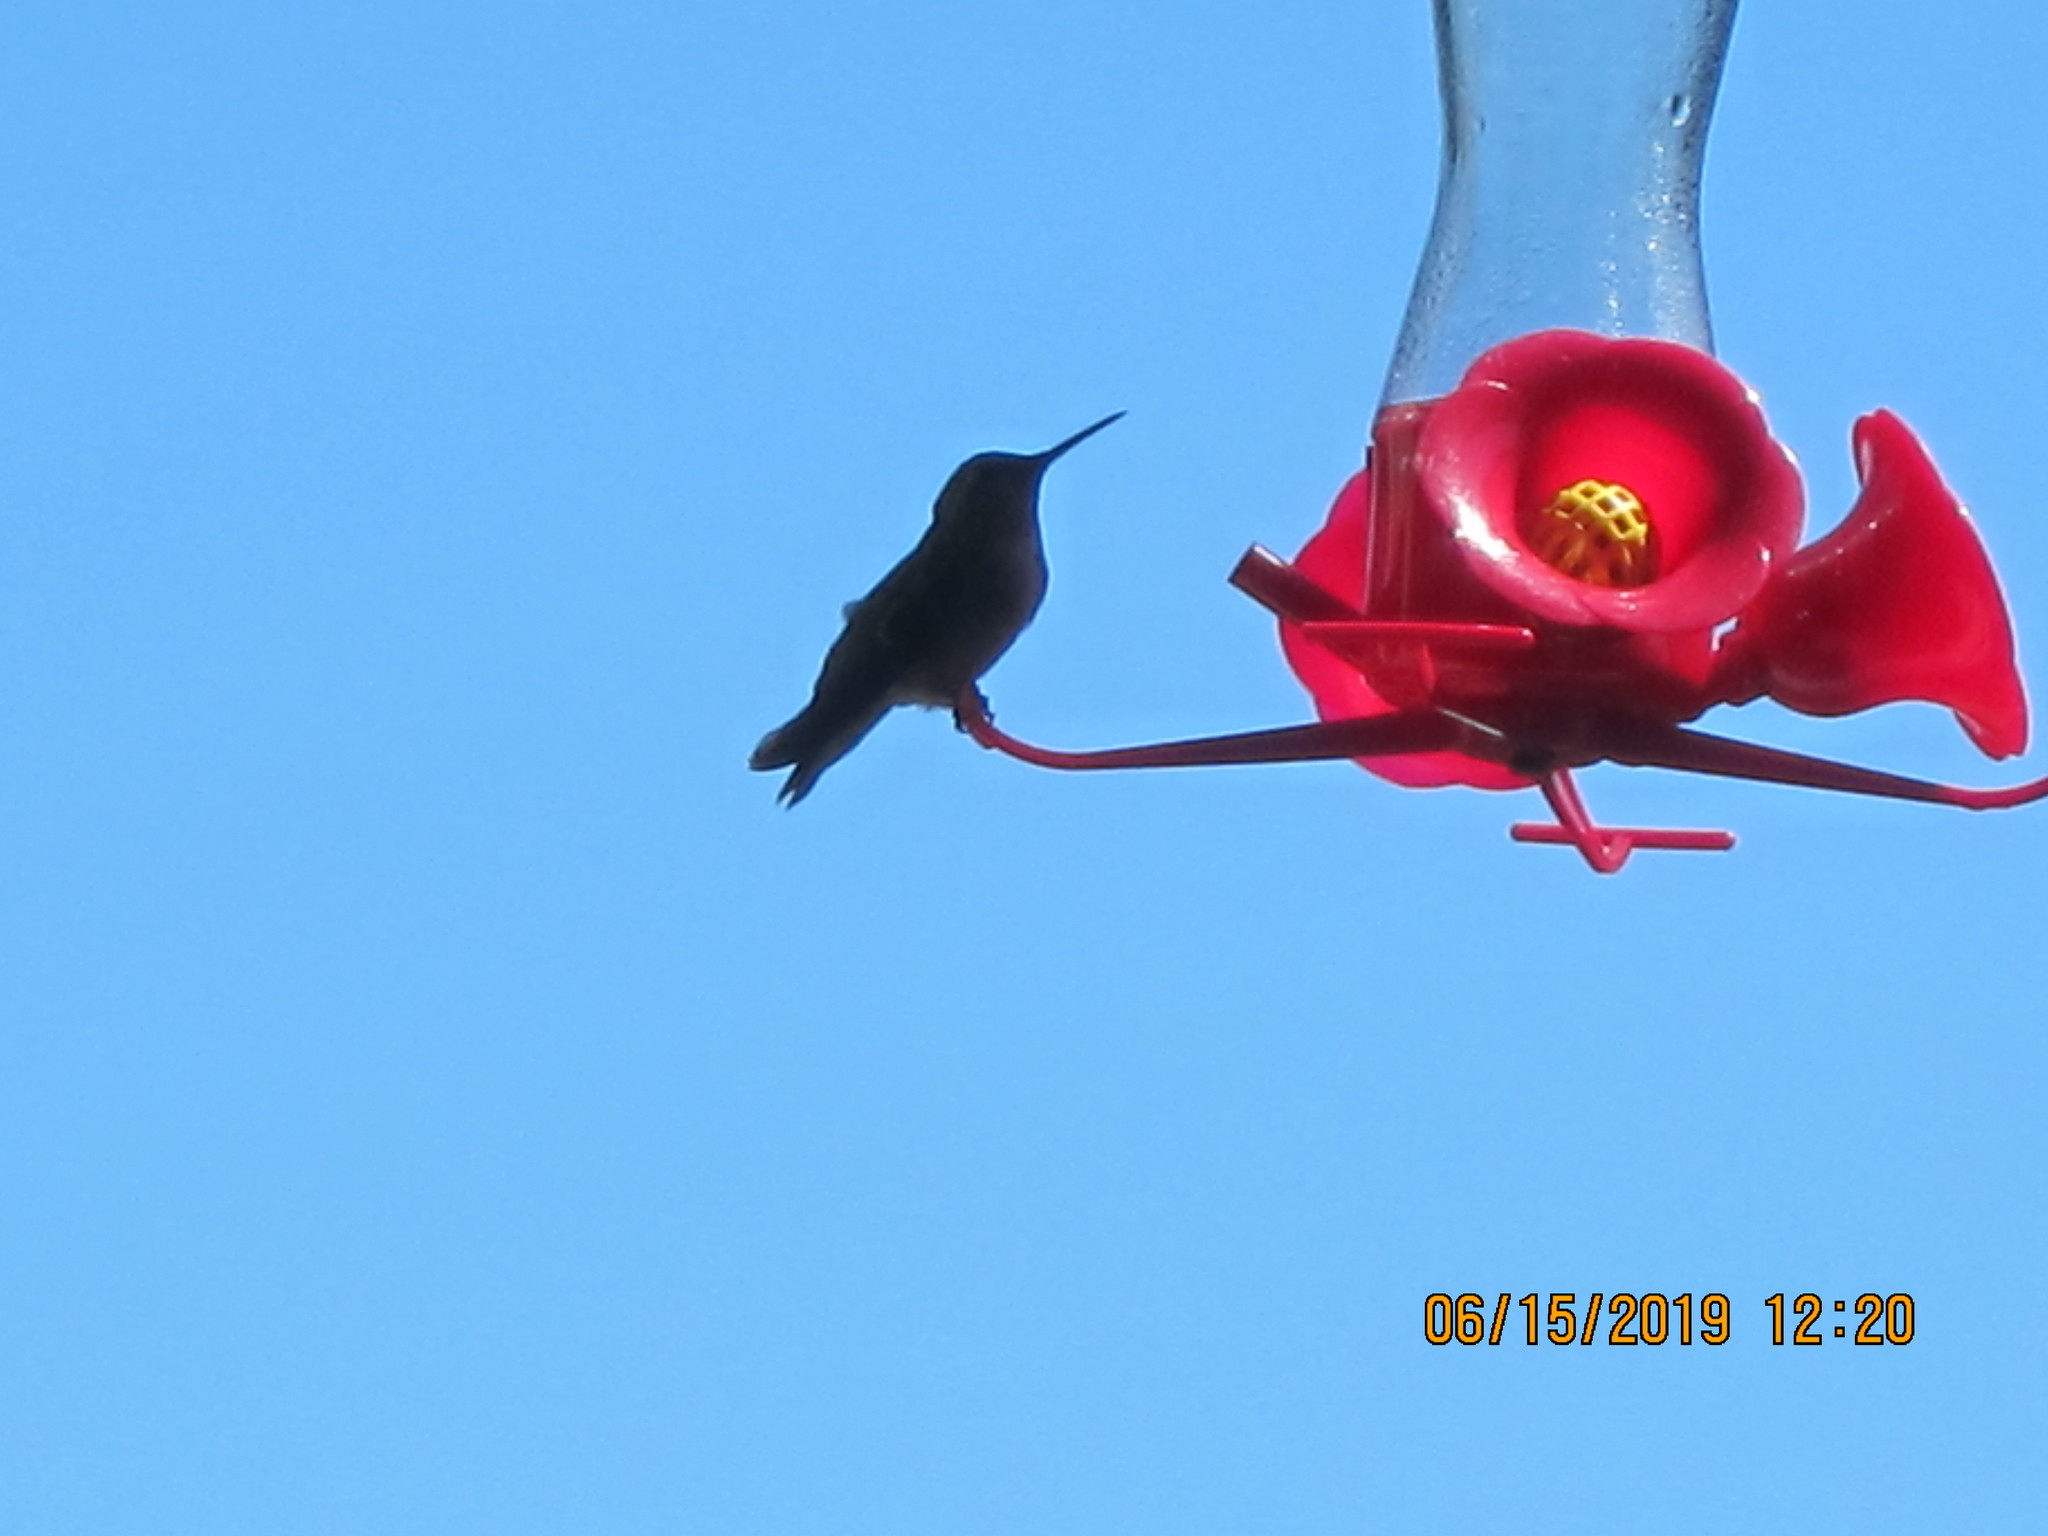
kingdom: Animalia
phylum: Chordata
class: Aves
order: Apodiformes
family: Trochilidae
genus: Calypte
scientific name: Calypte anna
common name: Anna's hummingbird
